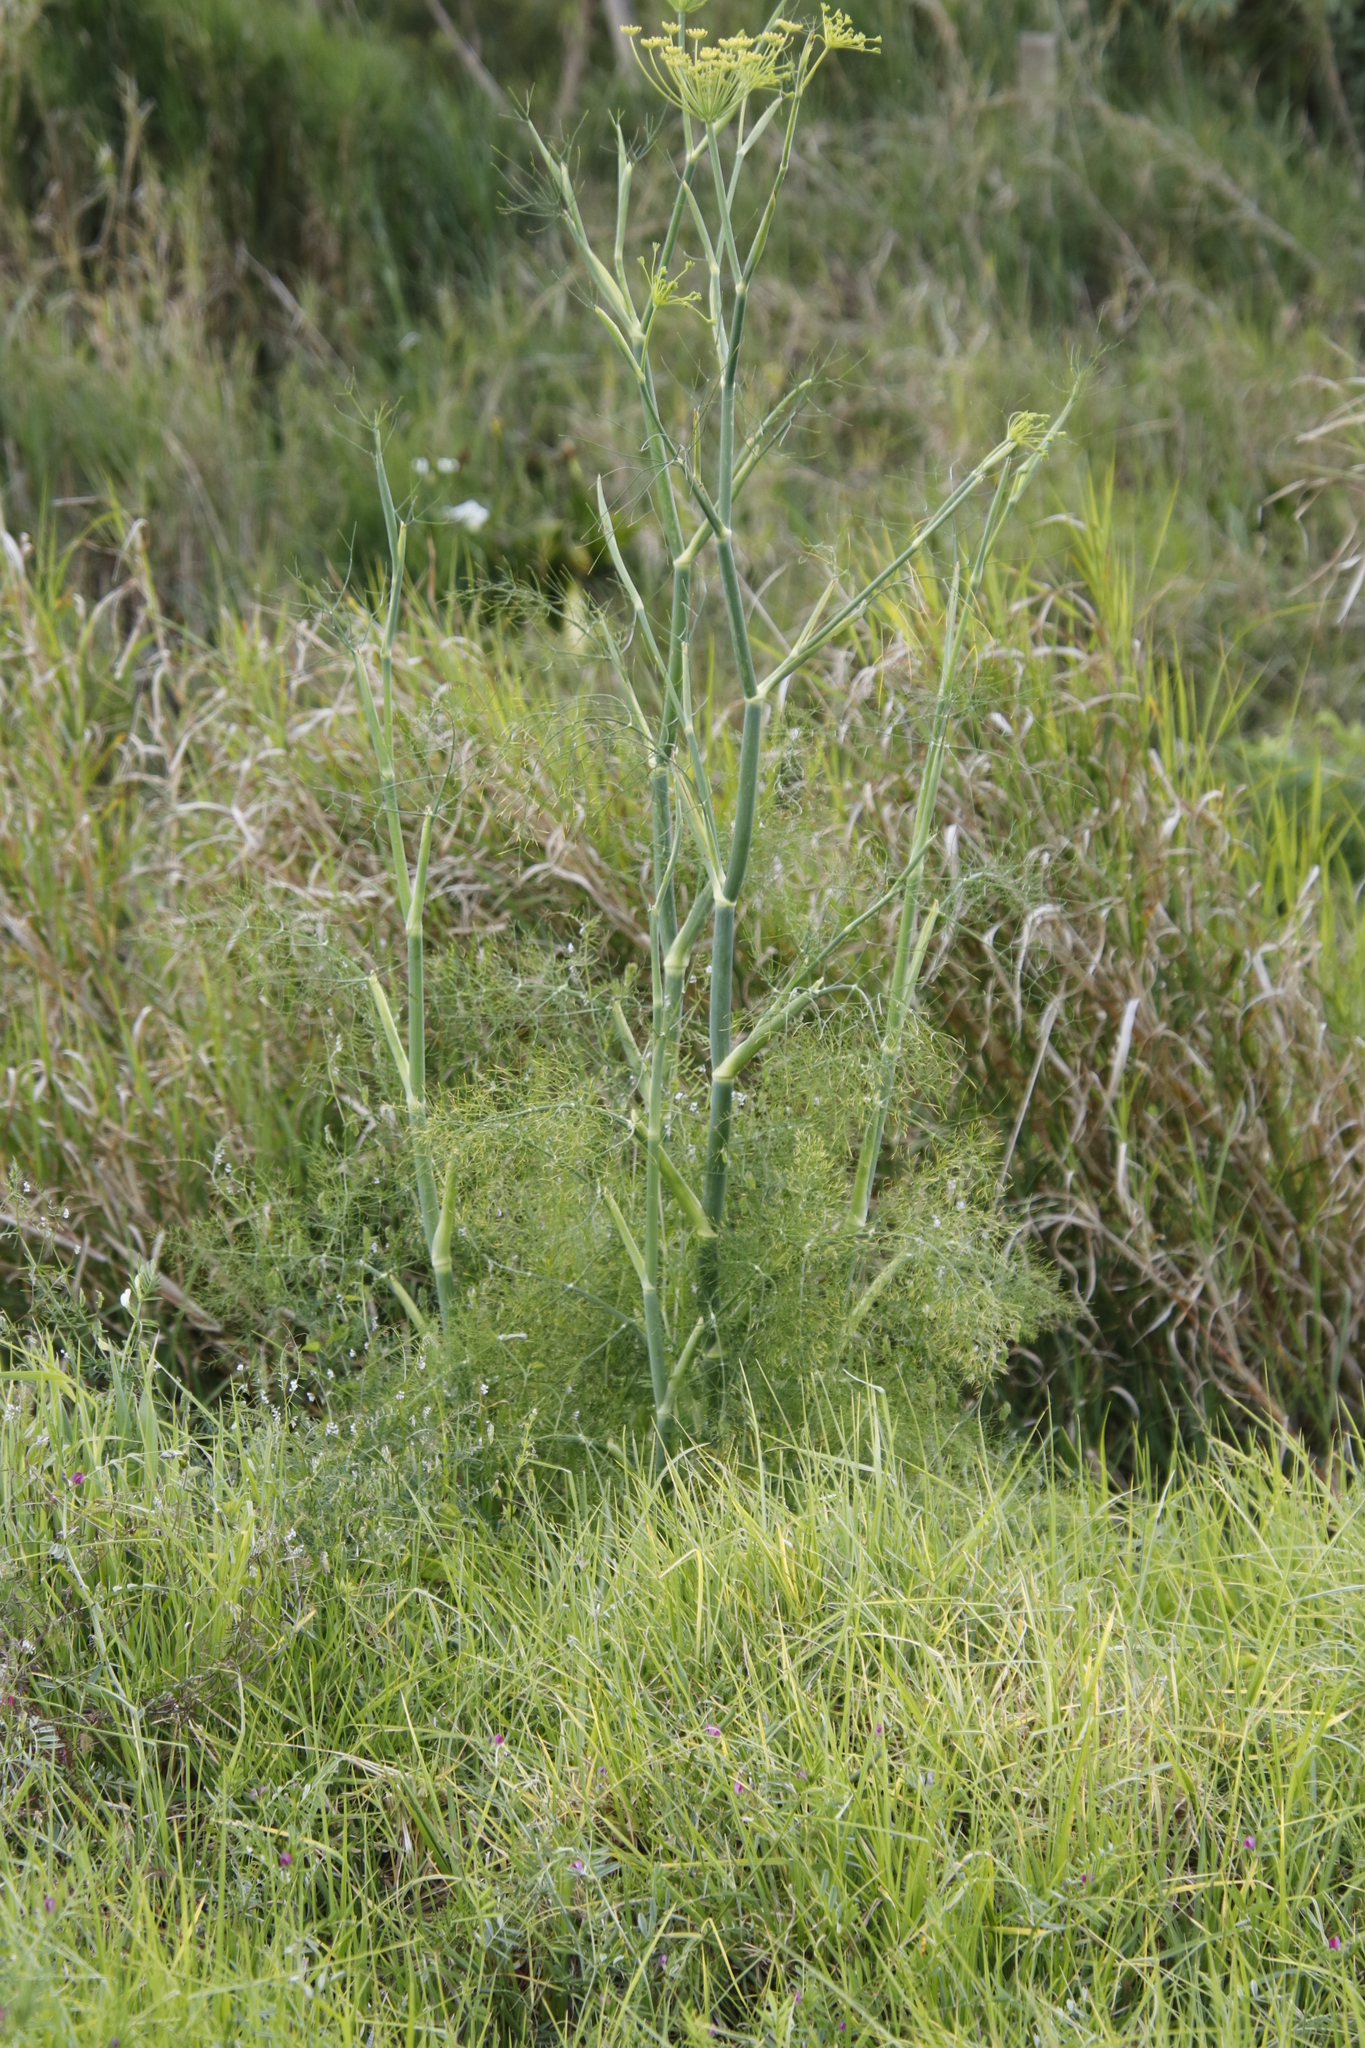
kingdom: Plantae
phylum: Tracheophyta
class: Magnoliopsida
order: Apiales
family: Apiaceae
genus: Foeniculum
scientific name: Foeniculum vulgare
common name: Fennel
